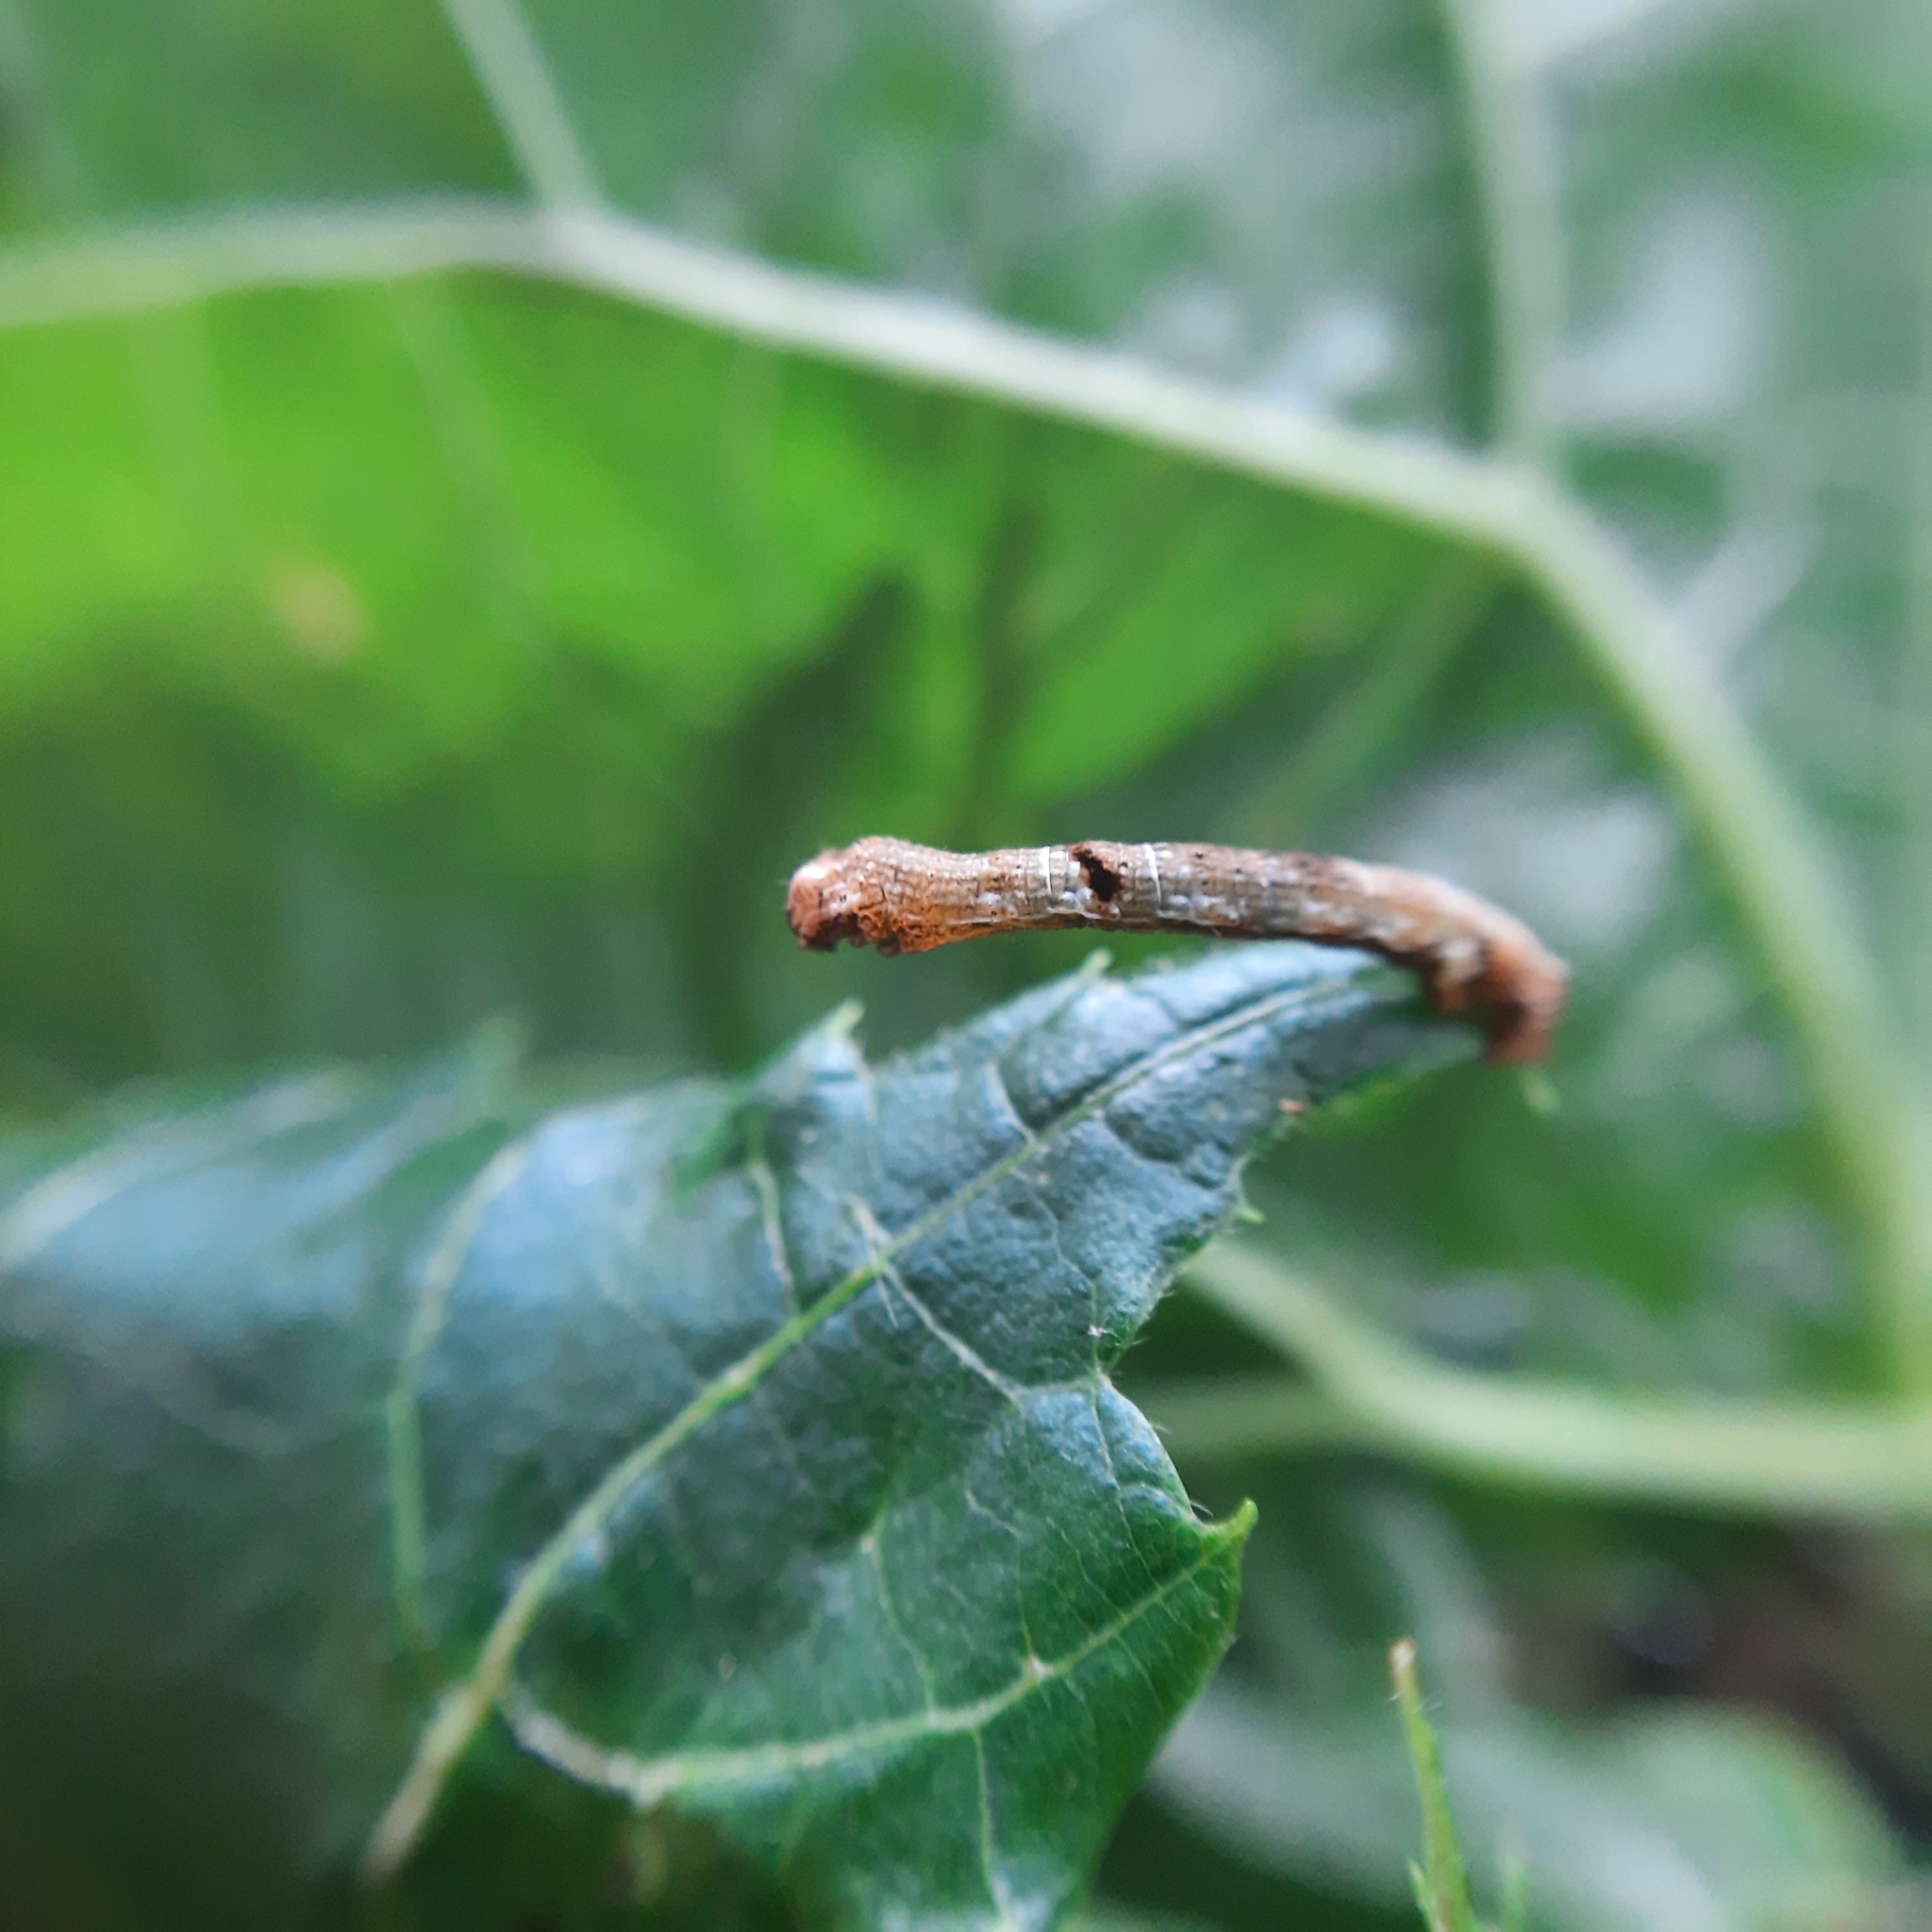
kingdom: Animalia
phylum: Arthropoda
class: Insecta
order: Lepidoptera
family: Geometridae
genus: Ectropis
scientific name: Ectropis crepuscularia
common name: Engrailed
